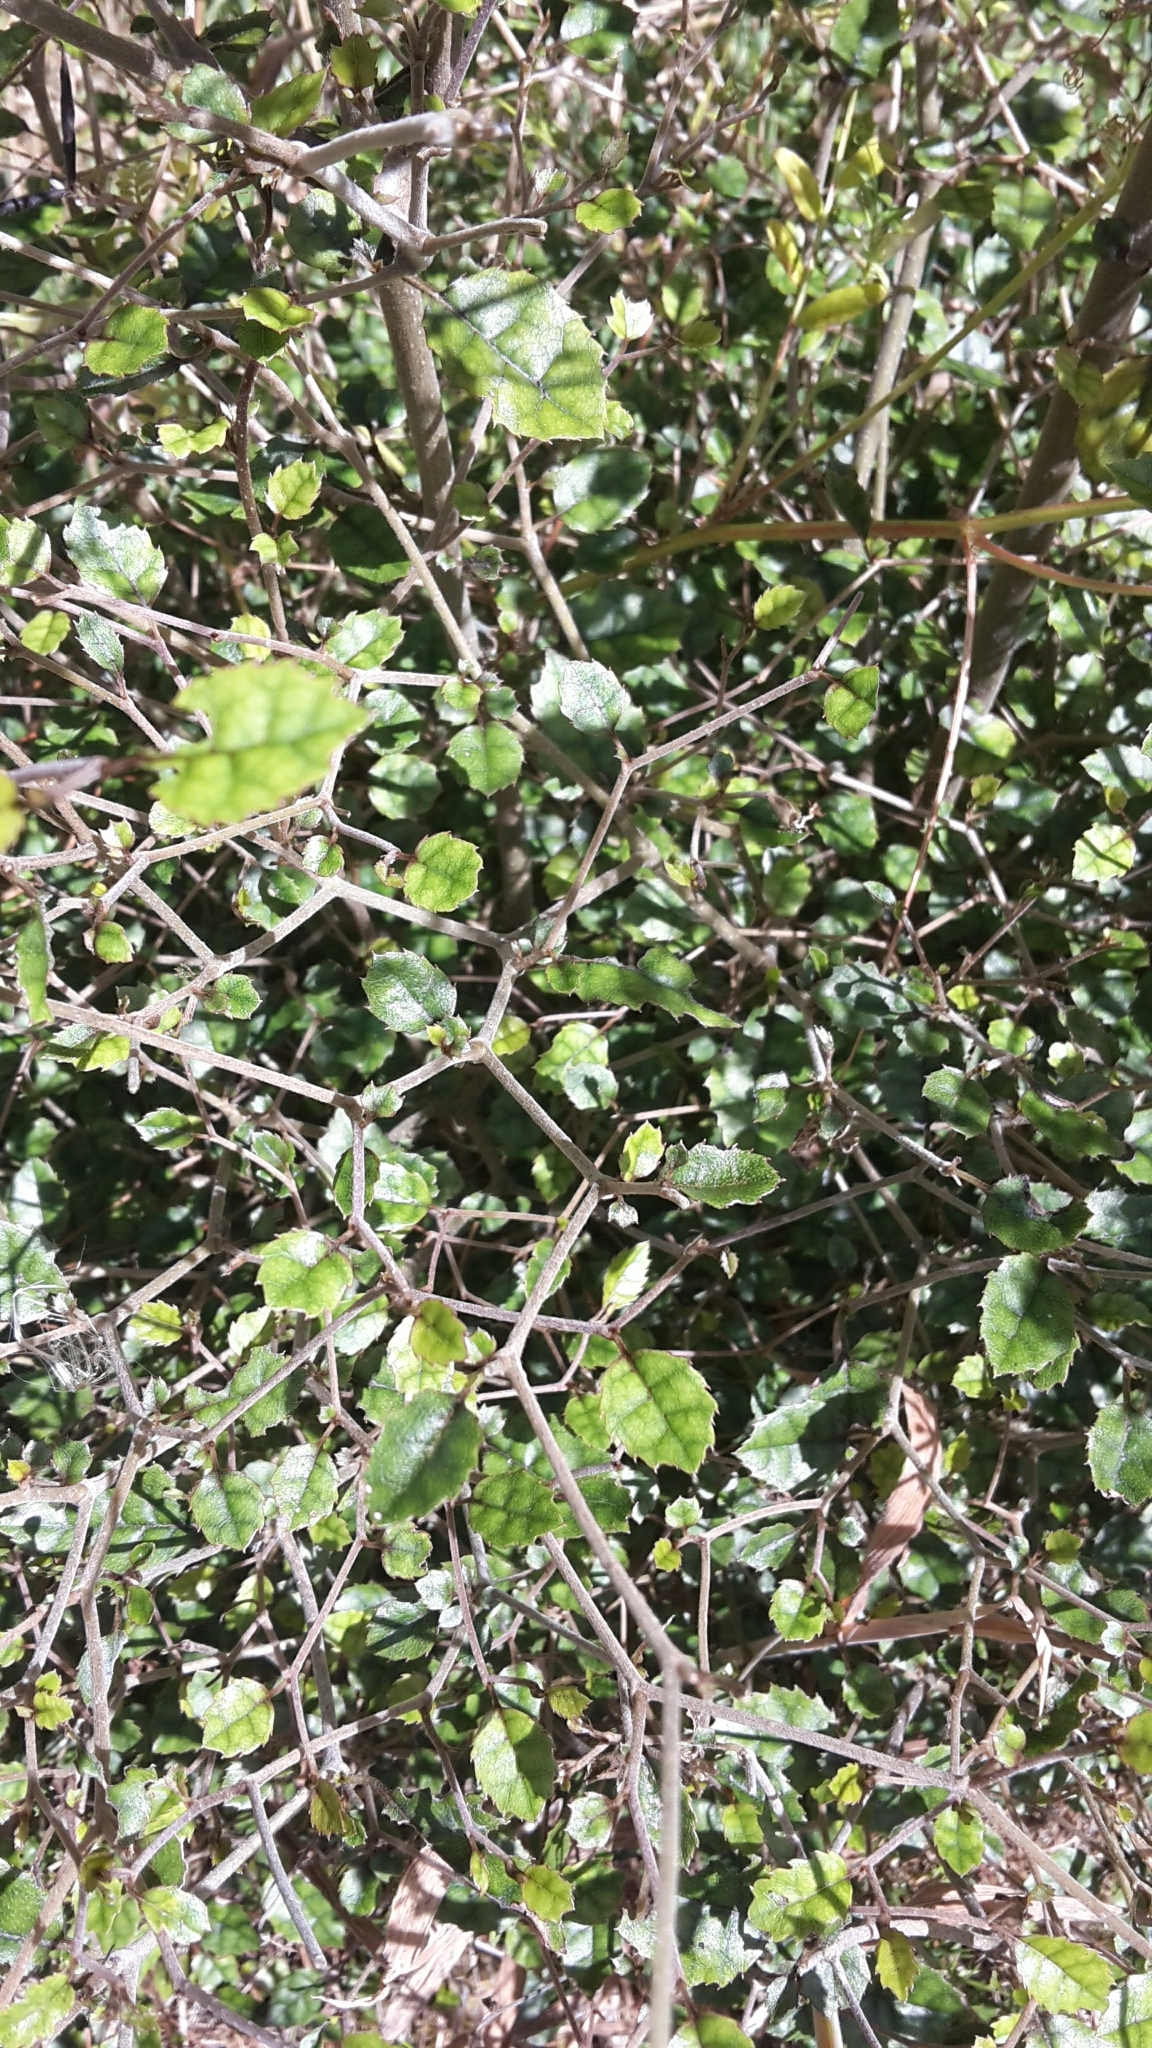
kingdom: Plantae
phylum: Tracheophyta
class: Magnoliopsida
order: Asterales
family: Rousseaceae
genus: Carpodetus
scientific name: Carpodetus serratus
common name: White mapau
